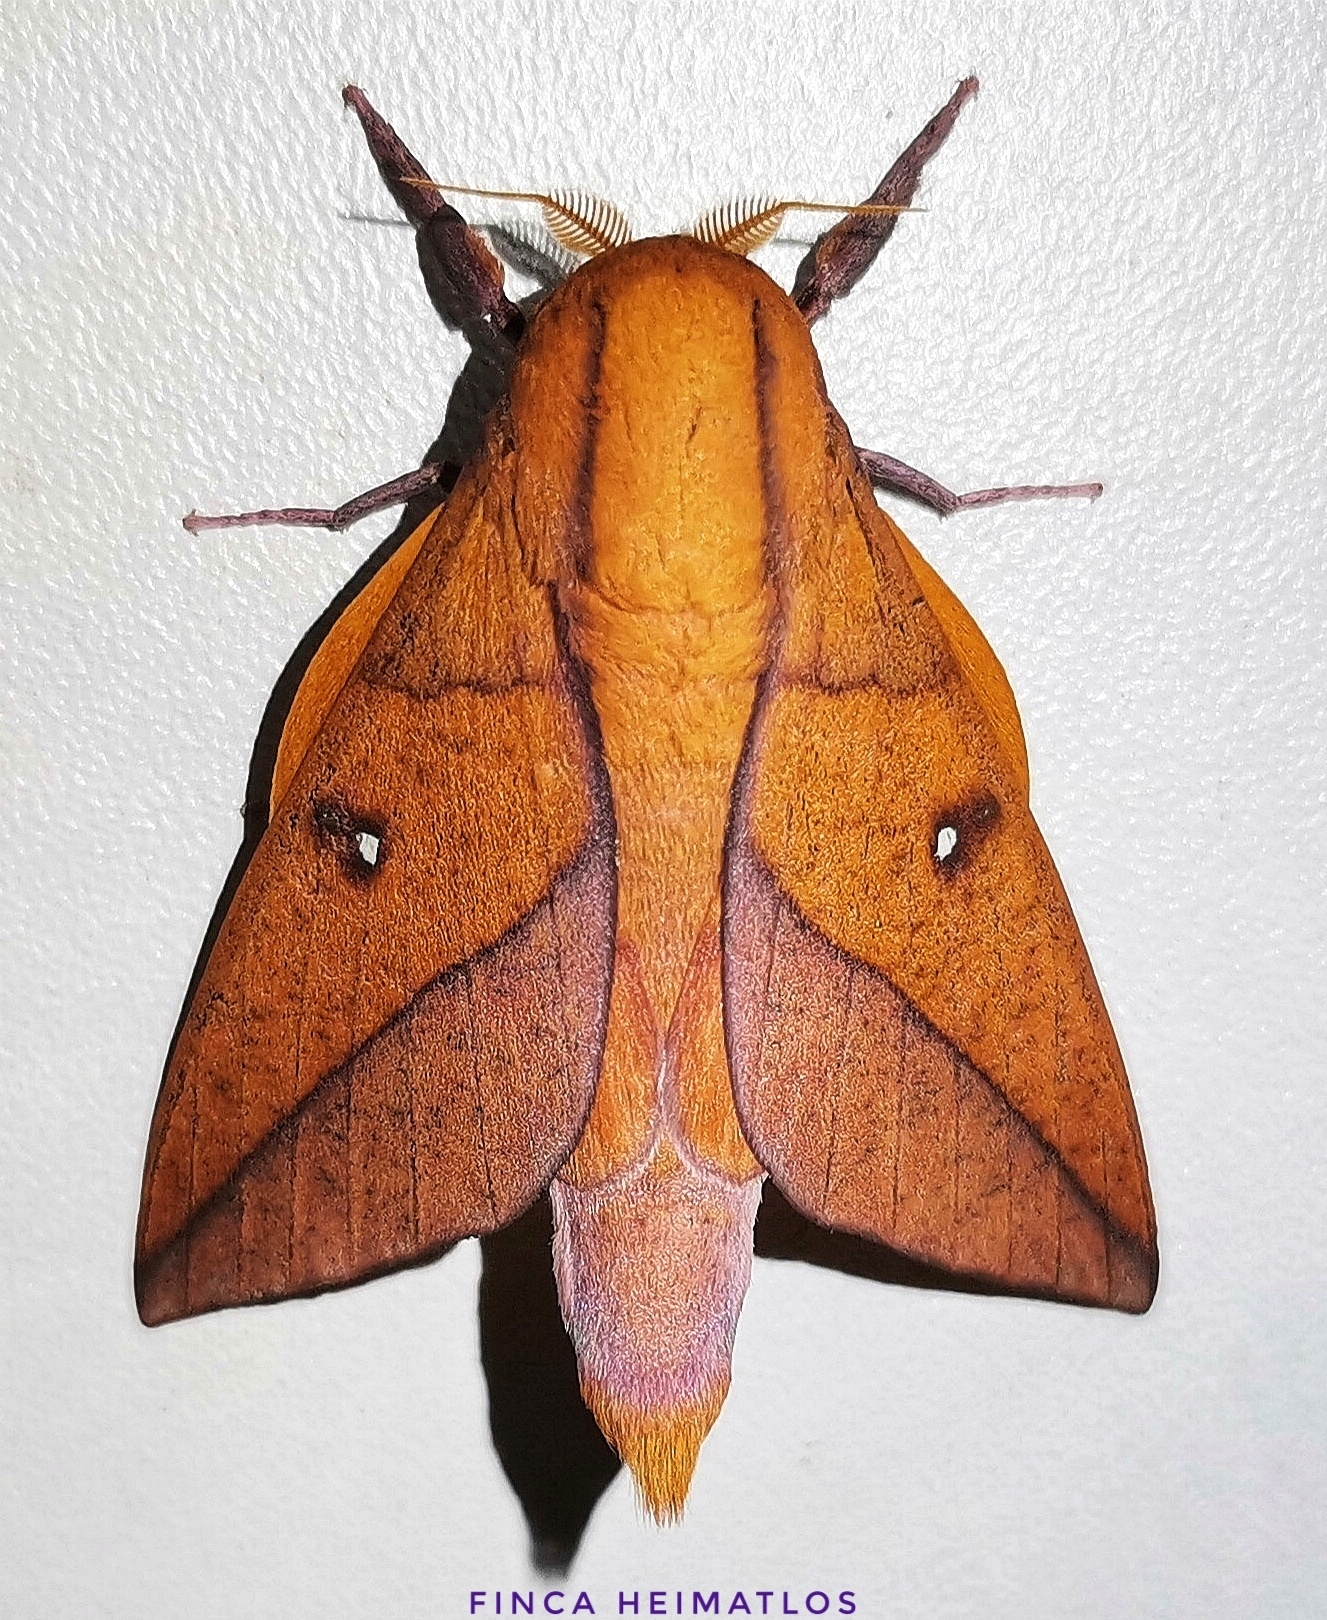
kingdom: Animalia
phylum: Arthropoda
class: Insecta
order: Lepidoptera
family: Saturniidae
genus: Adeloneivaia
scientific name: Adeloneivaia boisduvalii
